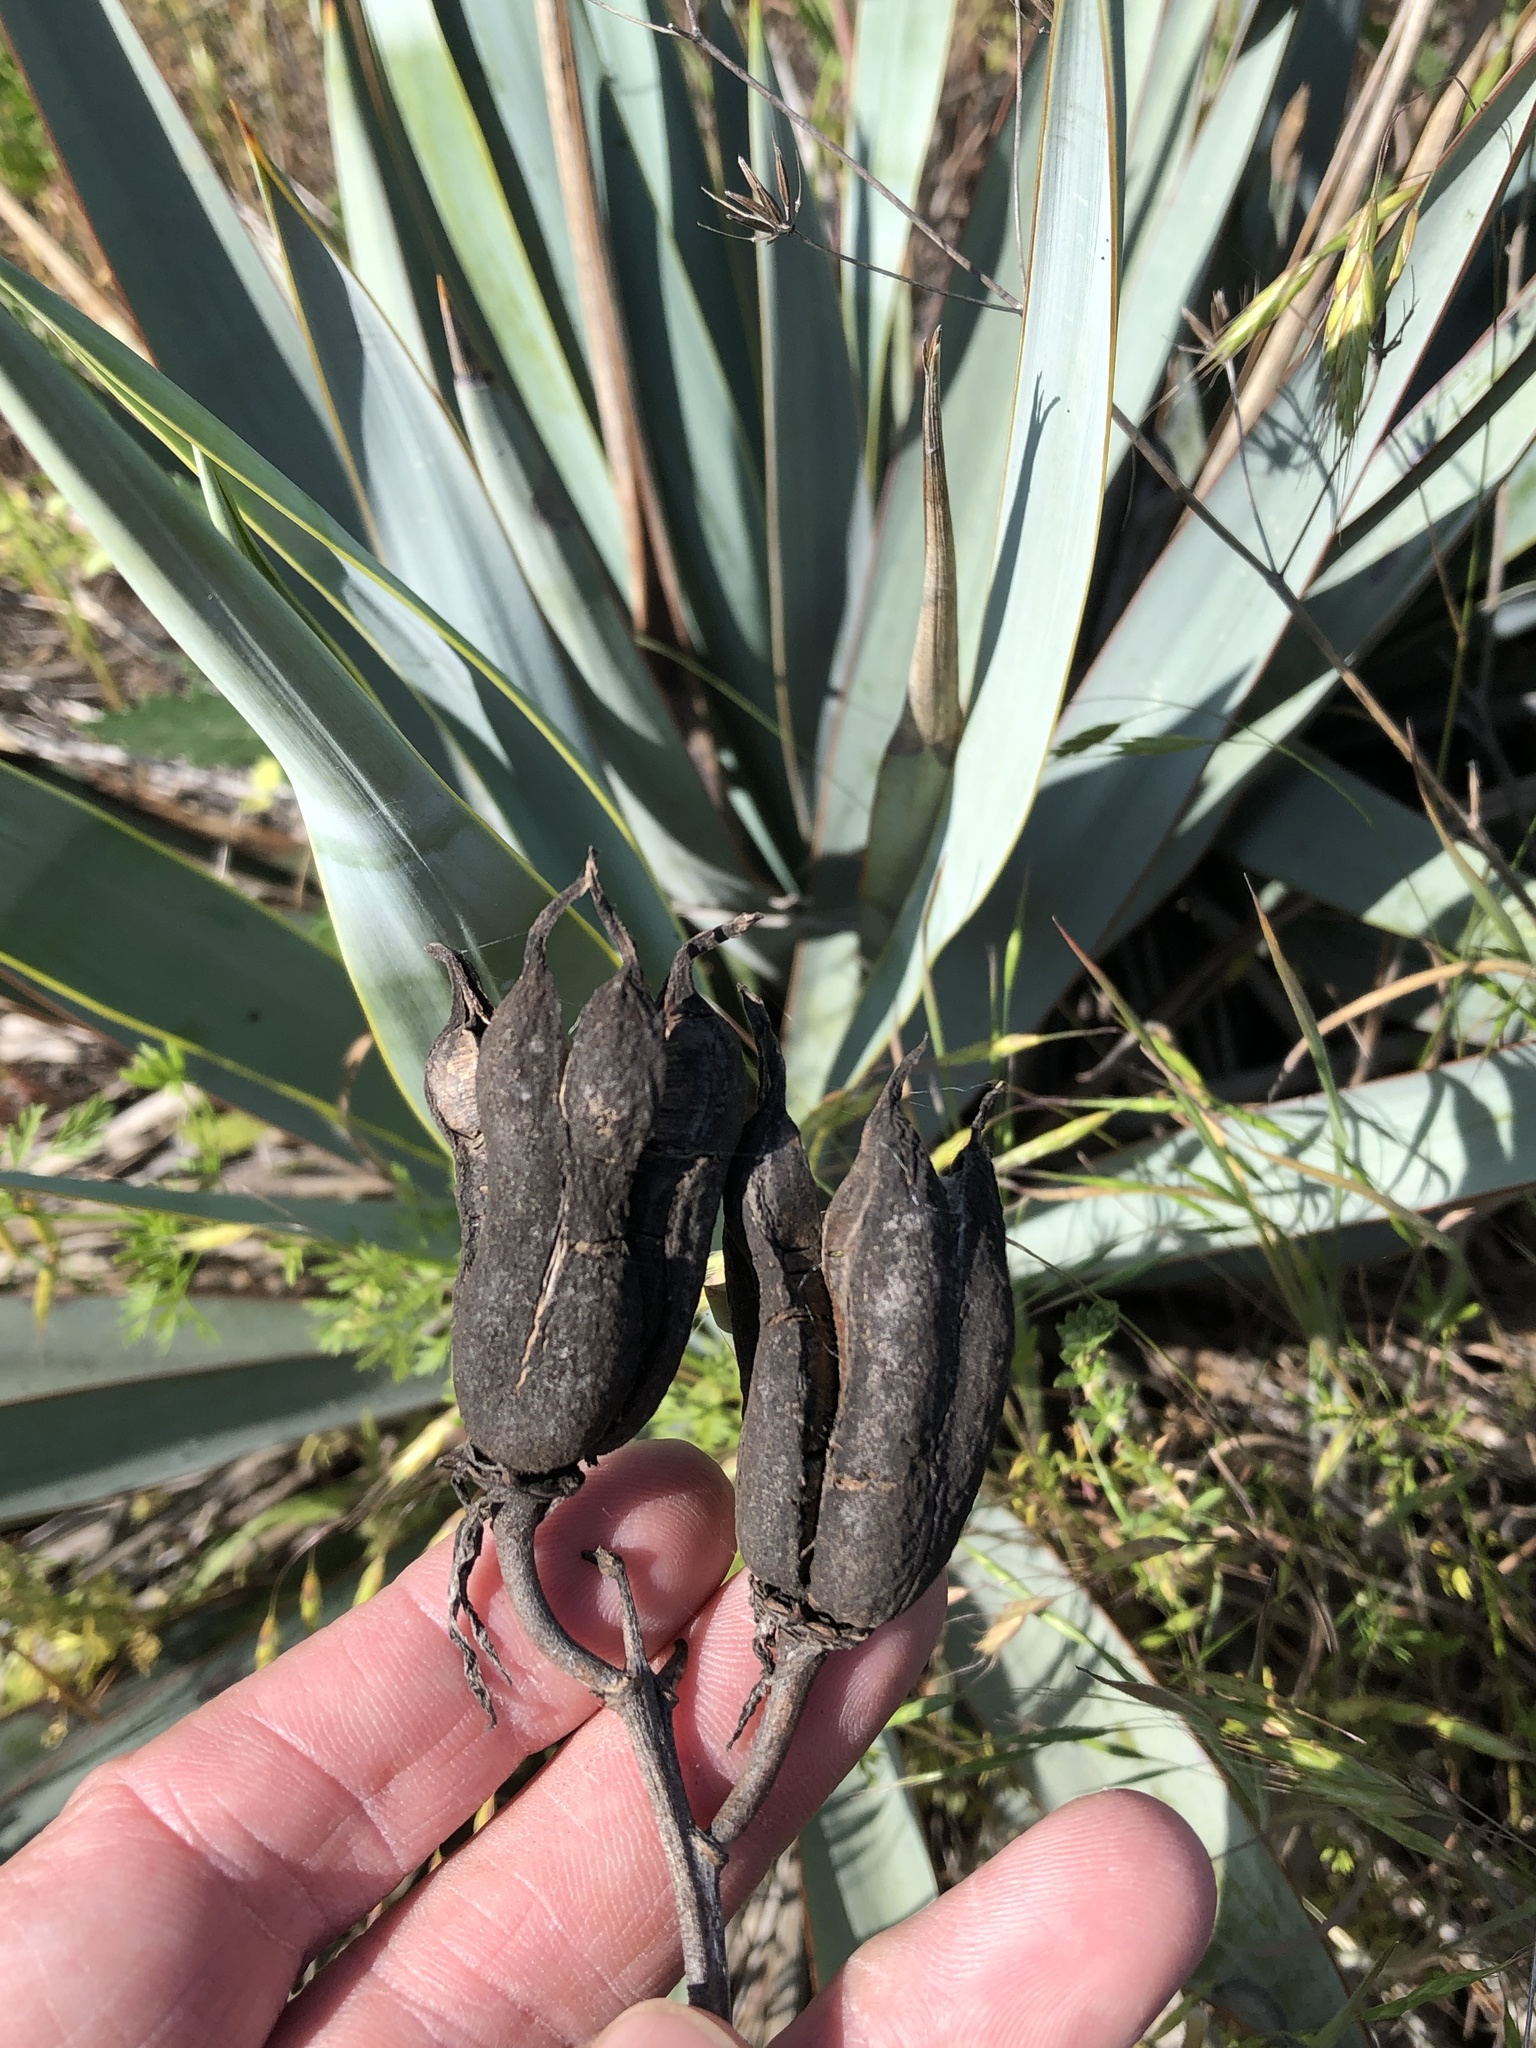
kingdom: Plantae
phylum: Tracheophyta
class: Liliopsida
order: Asparagales
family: Asparagaceae
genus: Yucca
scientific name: Yucca pallida
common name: Pale leaf yucca
